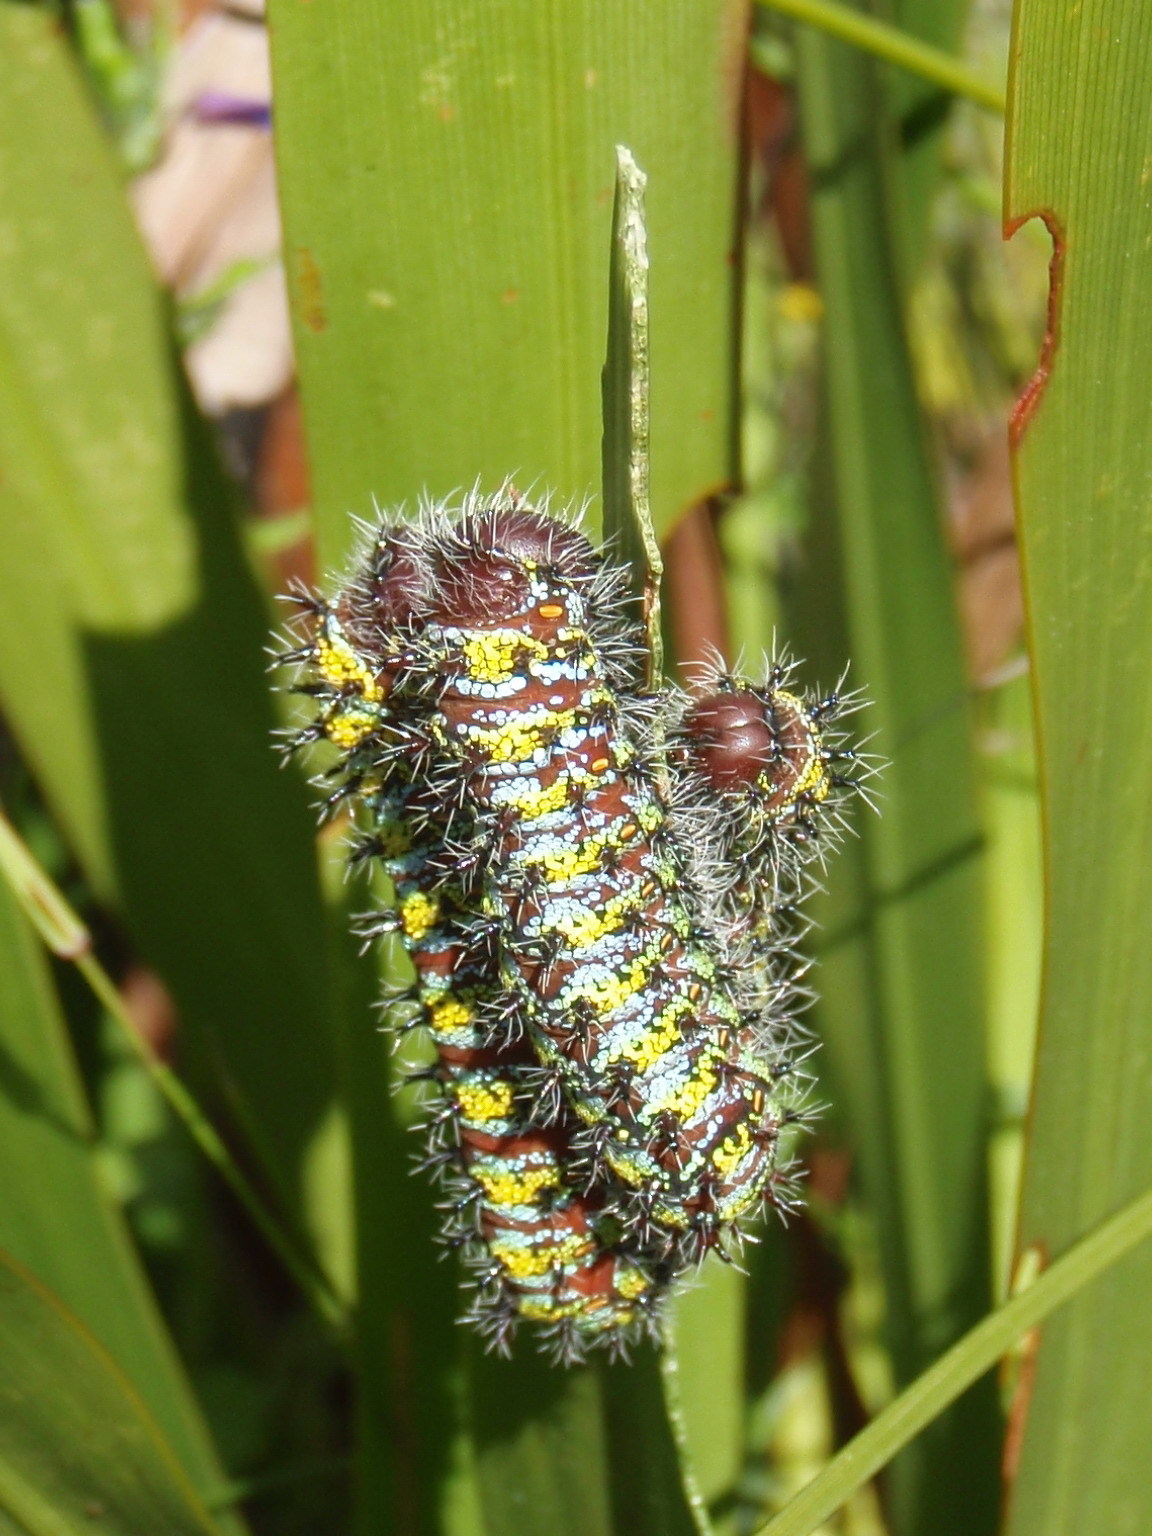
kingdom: Animalia
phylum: Arthropoda
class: Insecta
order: Lepidoptera
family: Saturniidae
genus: Nudaurelia
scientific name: Nudaurelia cytherea
